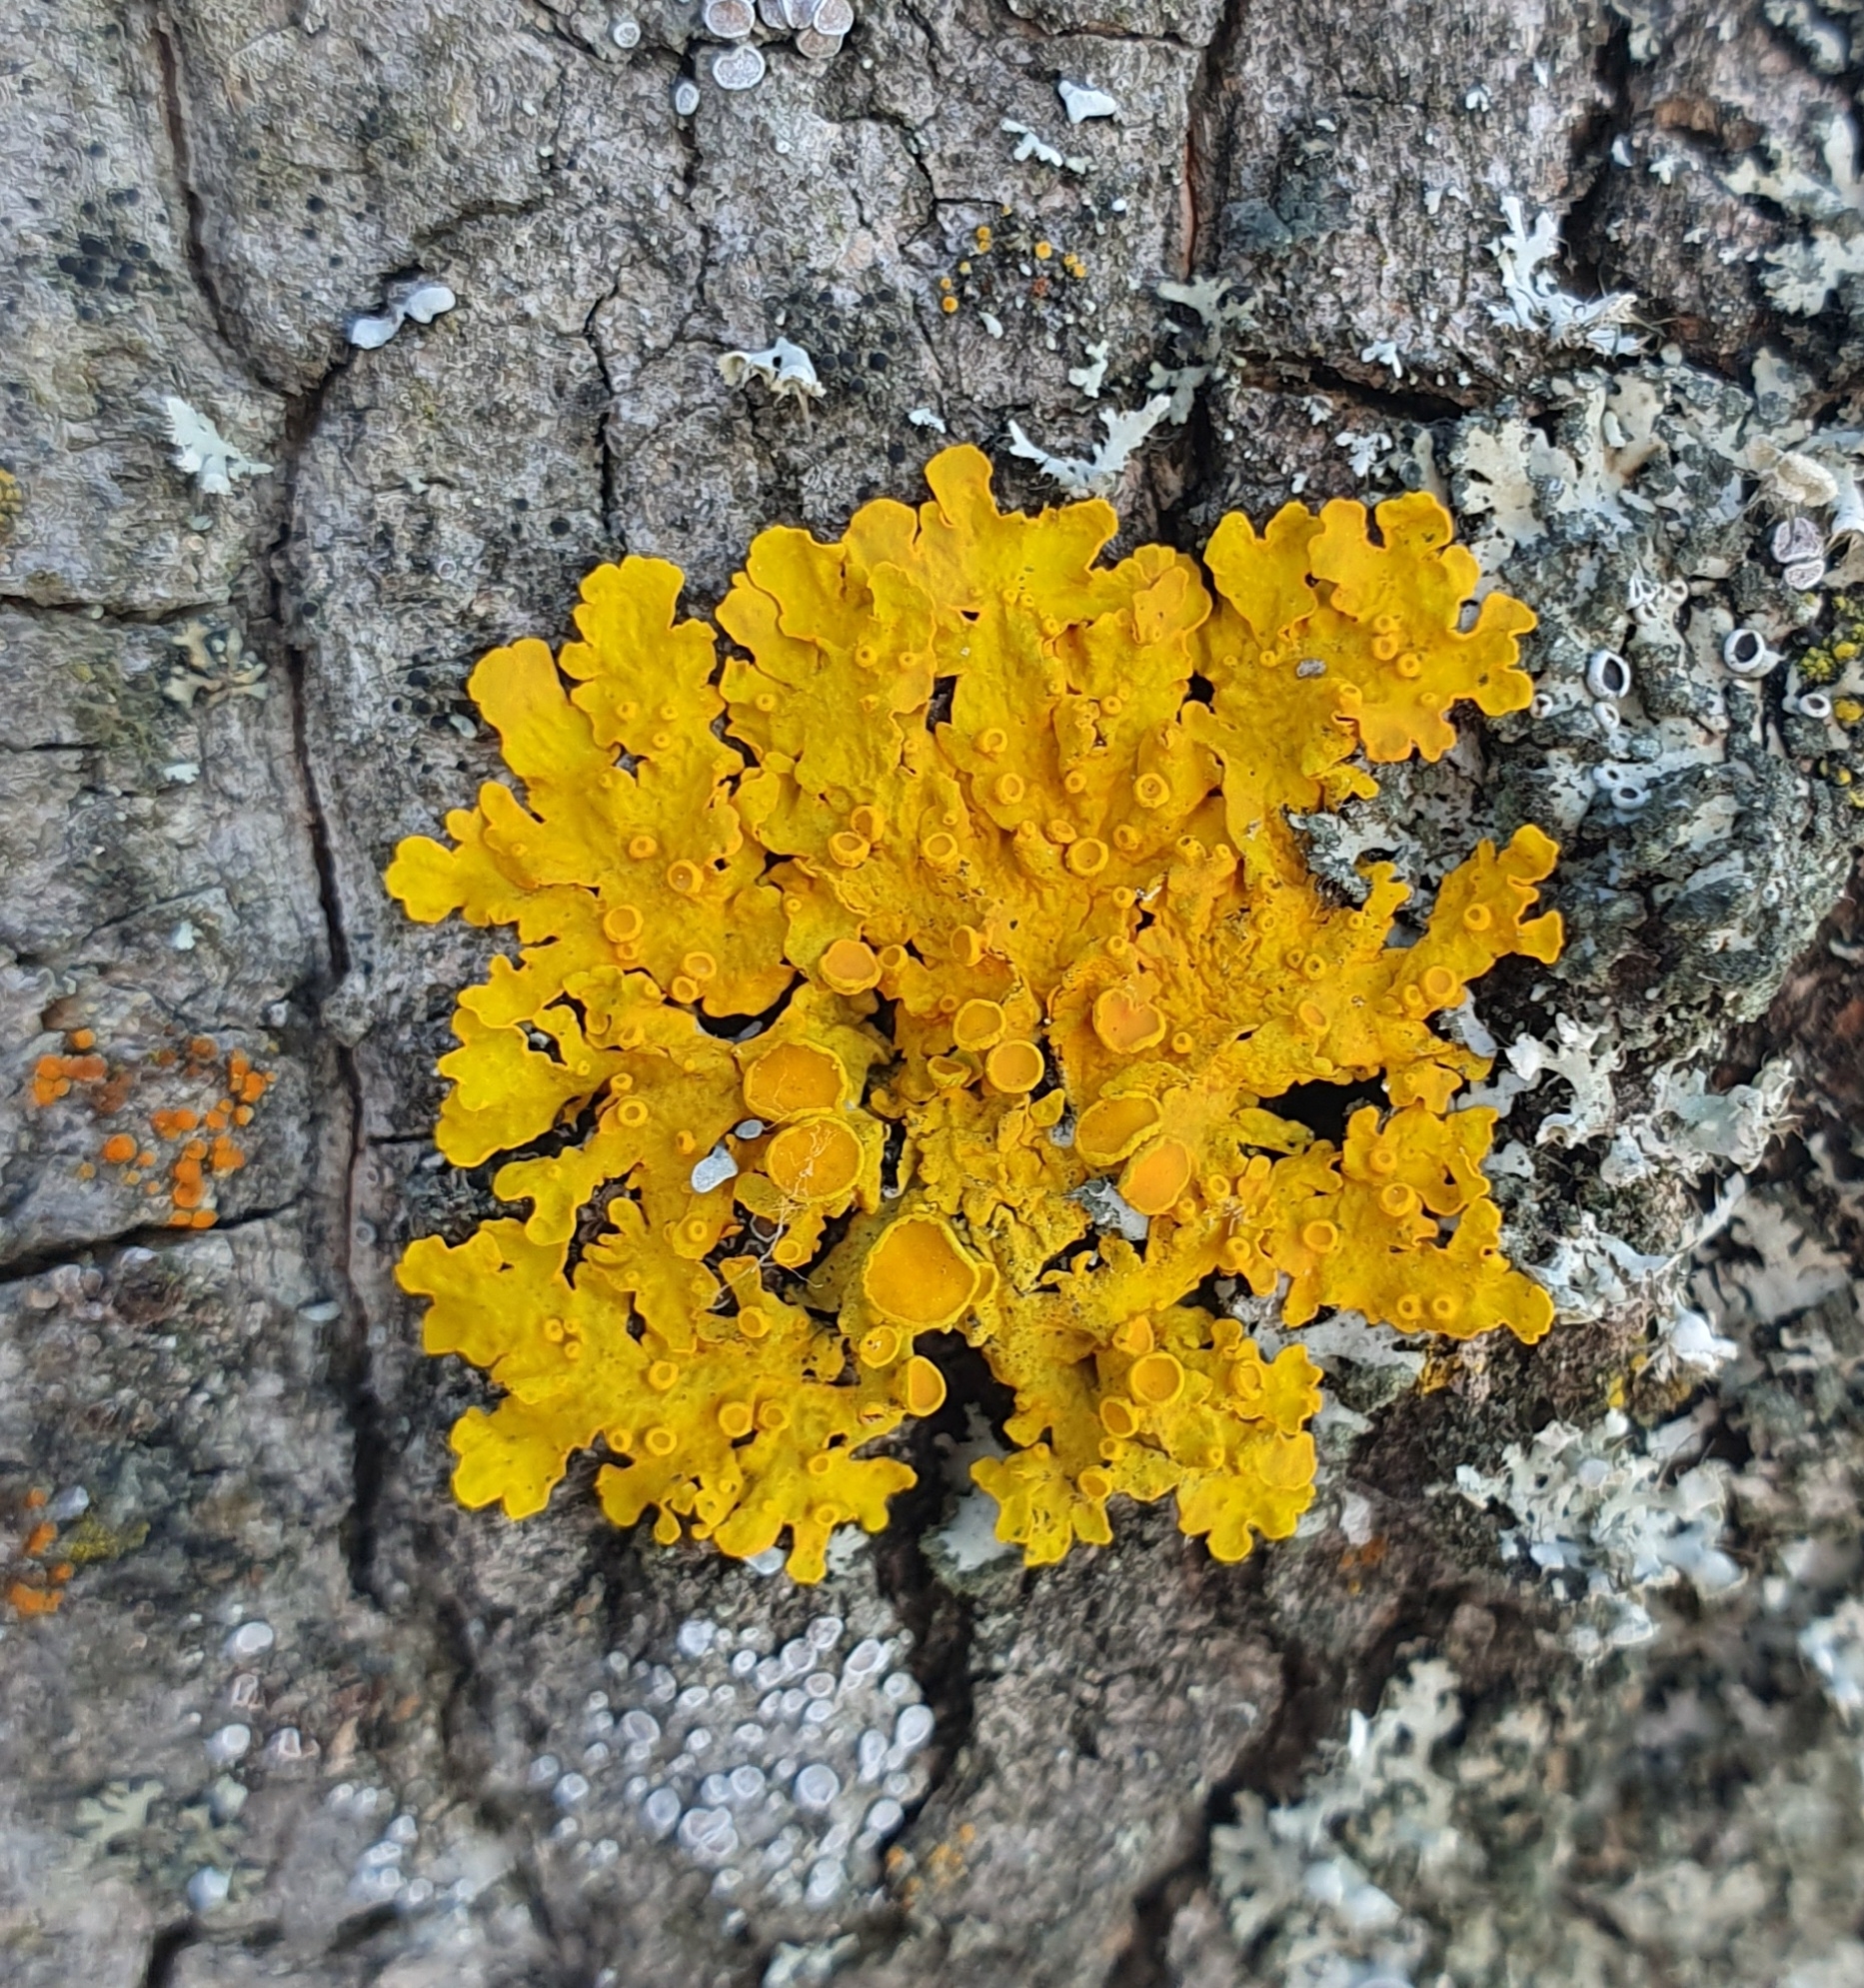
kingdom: Fungi
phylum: Ascomycota
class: Lecanoromycetes
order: Teloschistales
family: Teloschistaceae
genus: Xanthoria
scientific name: Xanthoria parietina
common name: Common orange lichen
